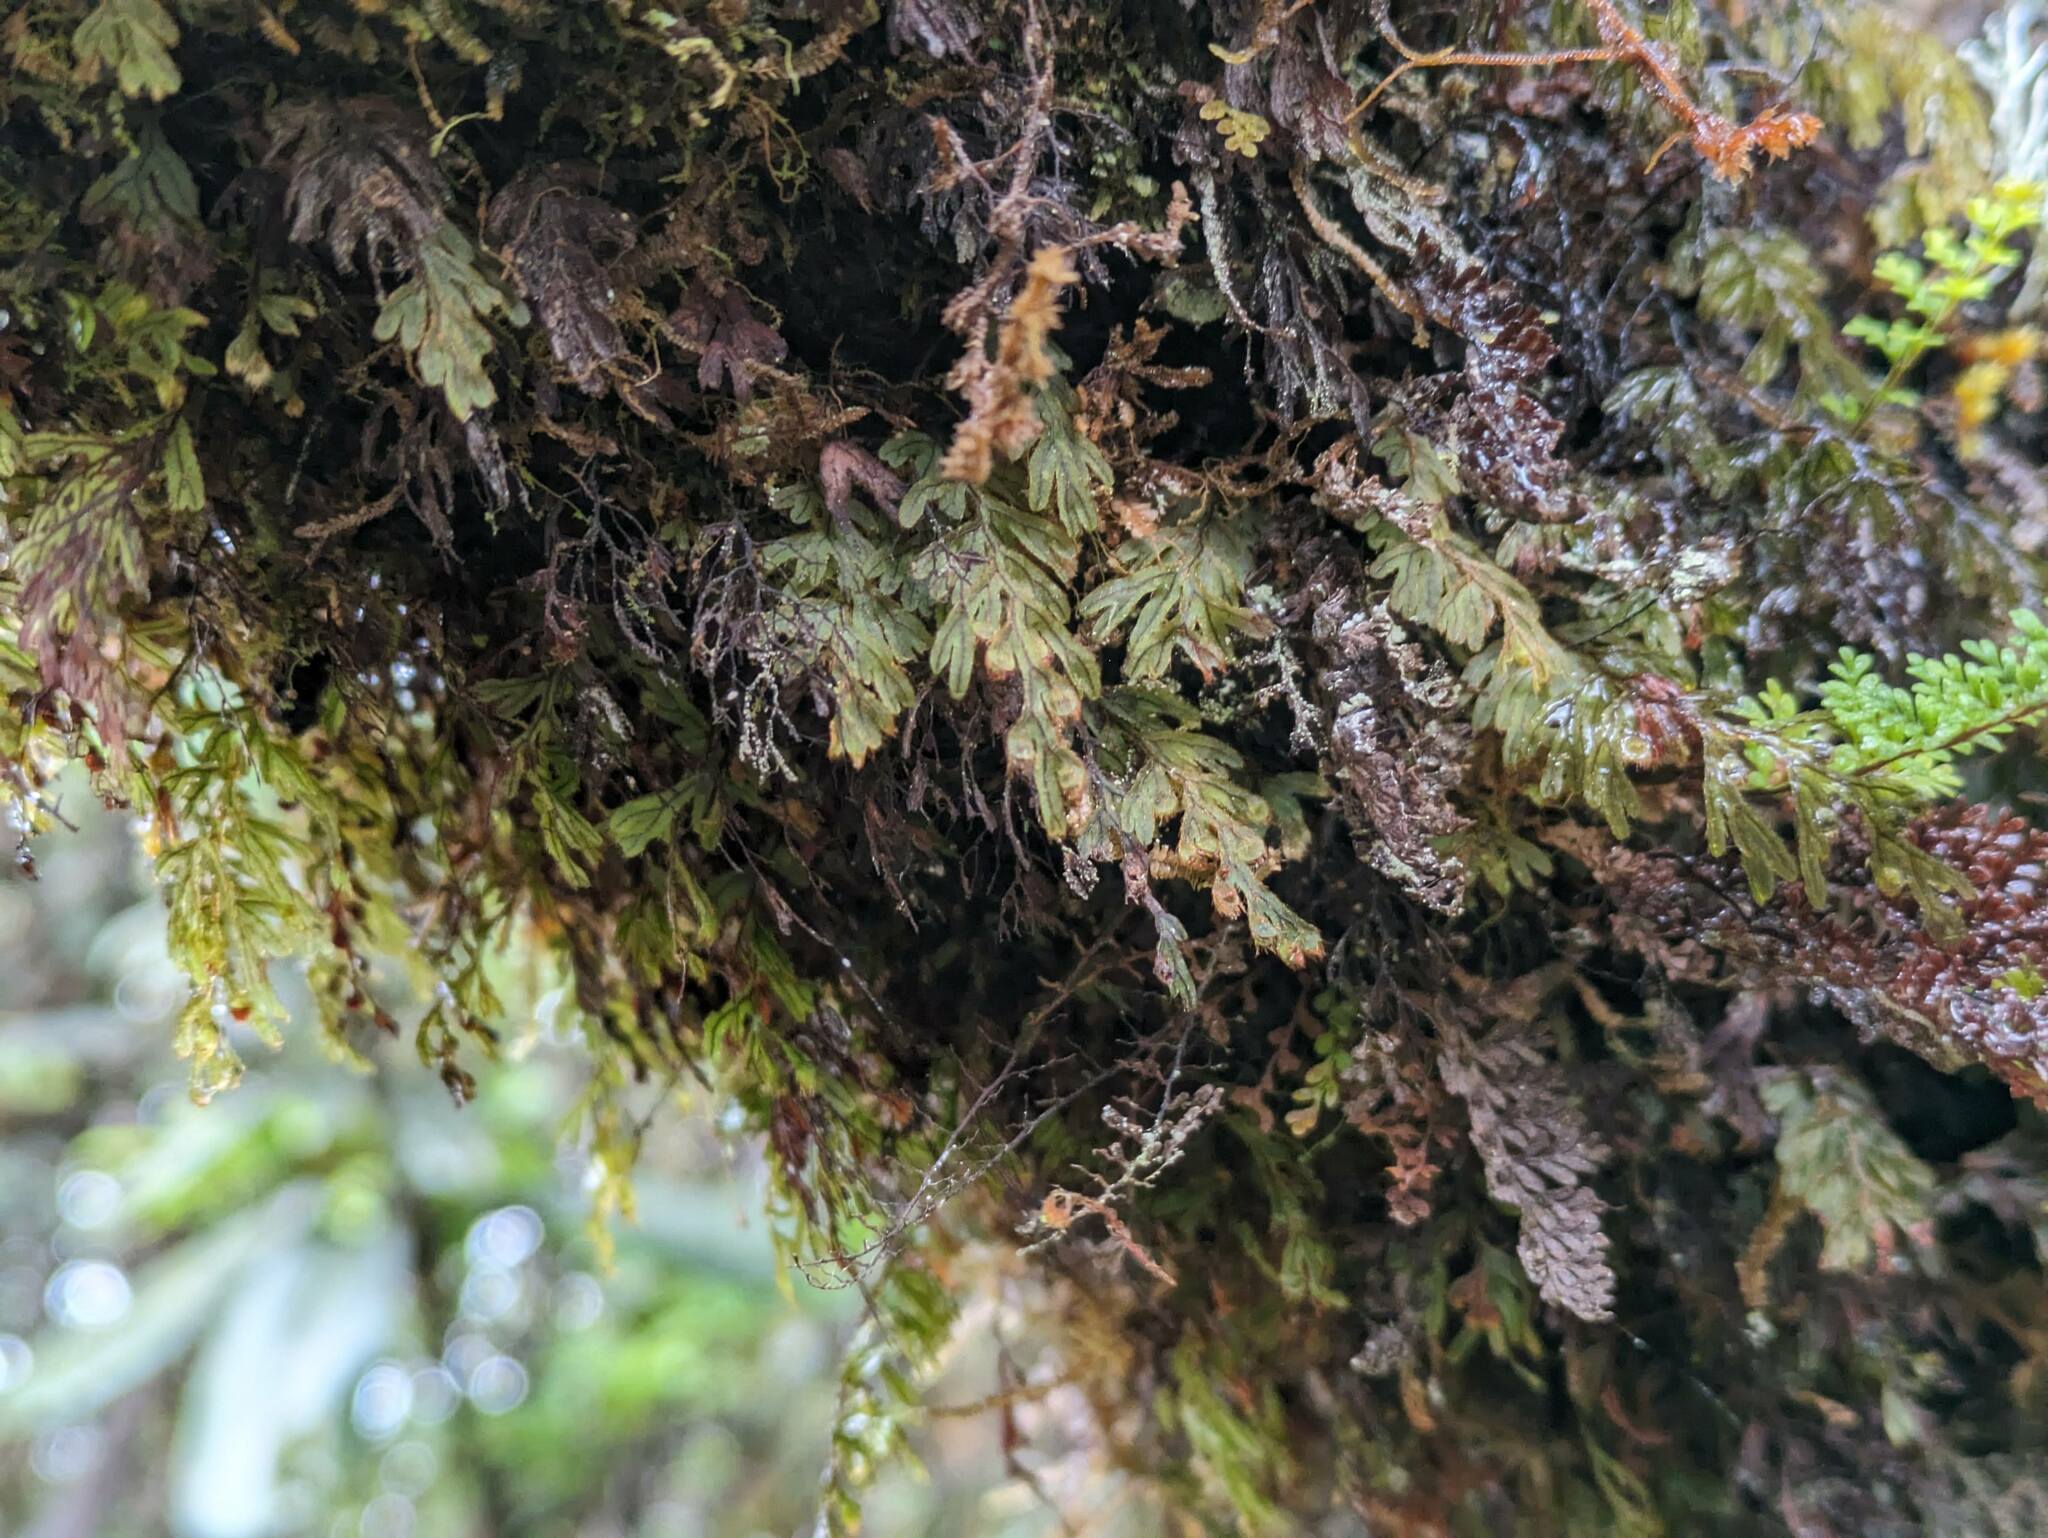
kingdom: Plantae
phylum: Tracheophyta
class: Polypodiopsida
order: Hymenophyllales
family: Hymenophyllaceae
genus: Hymenophyllum
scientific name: Hymenophyllum lanceolatum
